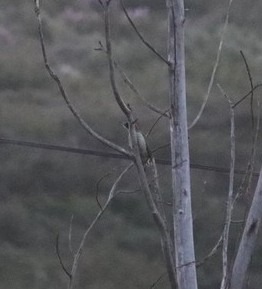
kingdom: Animalia
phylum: Chordata
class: Aves
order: Piciformes
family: Picidae
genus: Picus
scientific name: Picus viridis
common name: European green woodpecker
